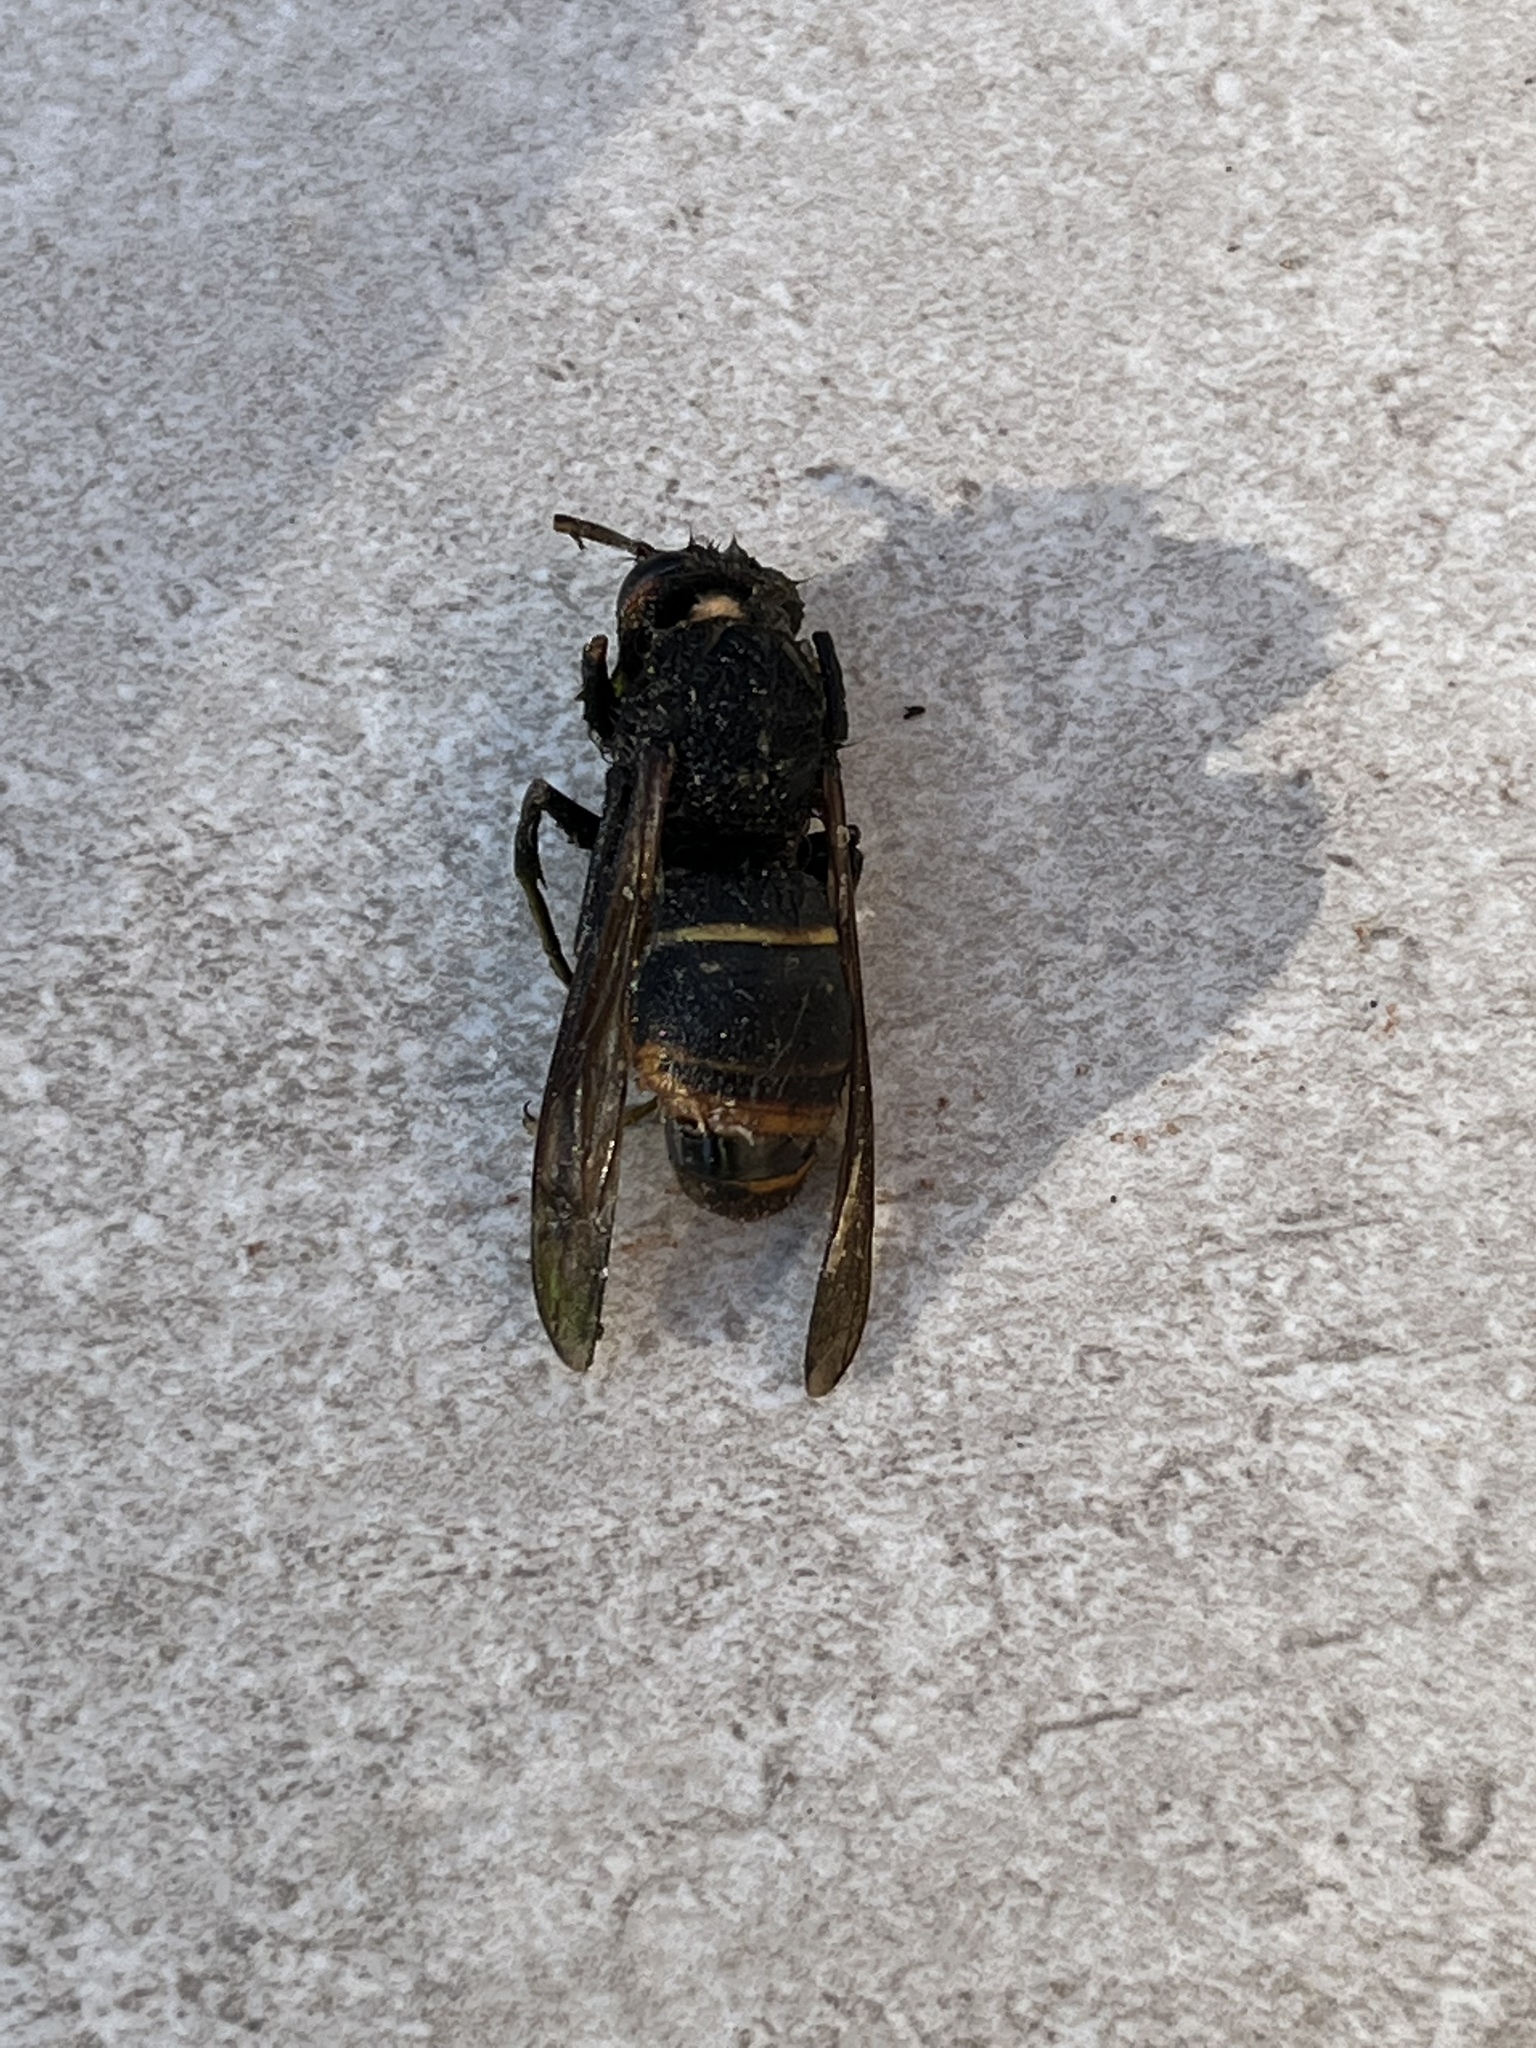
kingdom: Animalia
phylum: Arthropoda
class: Insecta
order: Hymenoptera
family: Vespidae
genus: Vespa
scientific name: Vespa velutina
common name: Asian hornet
